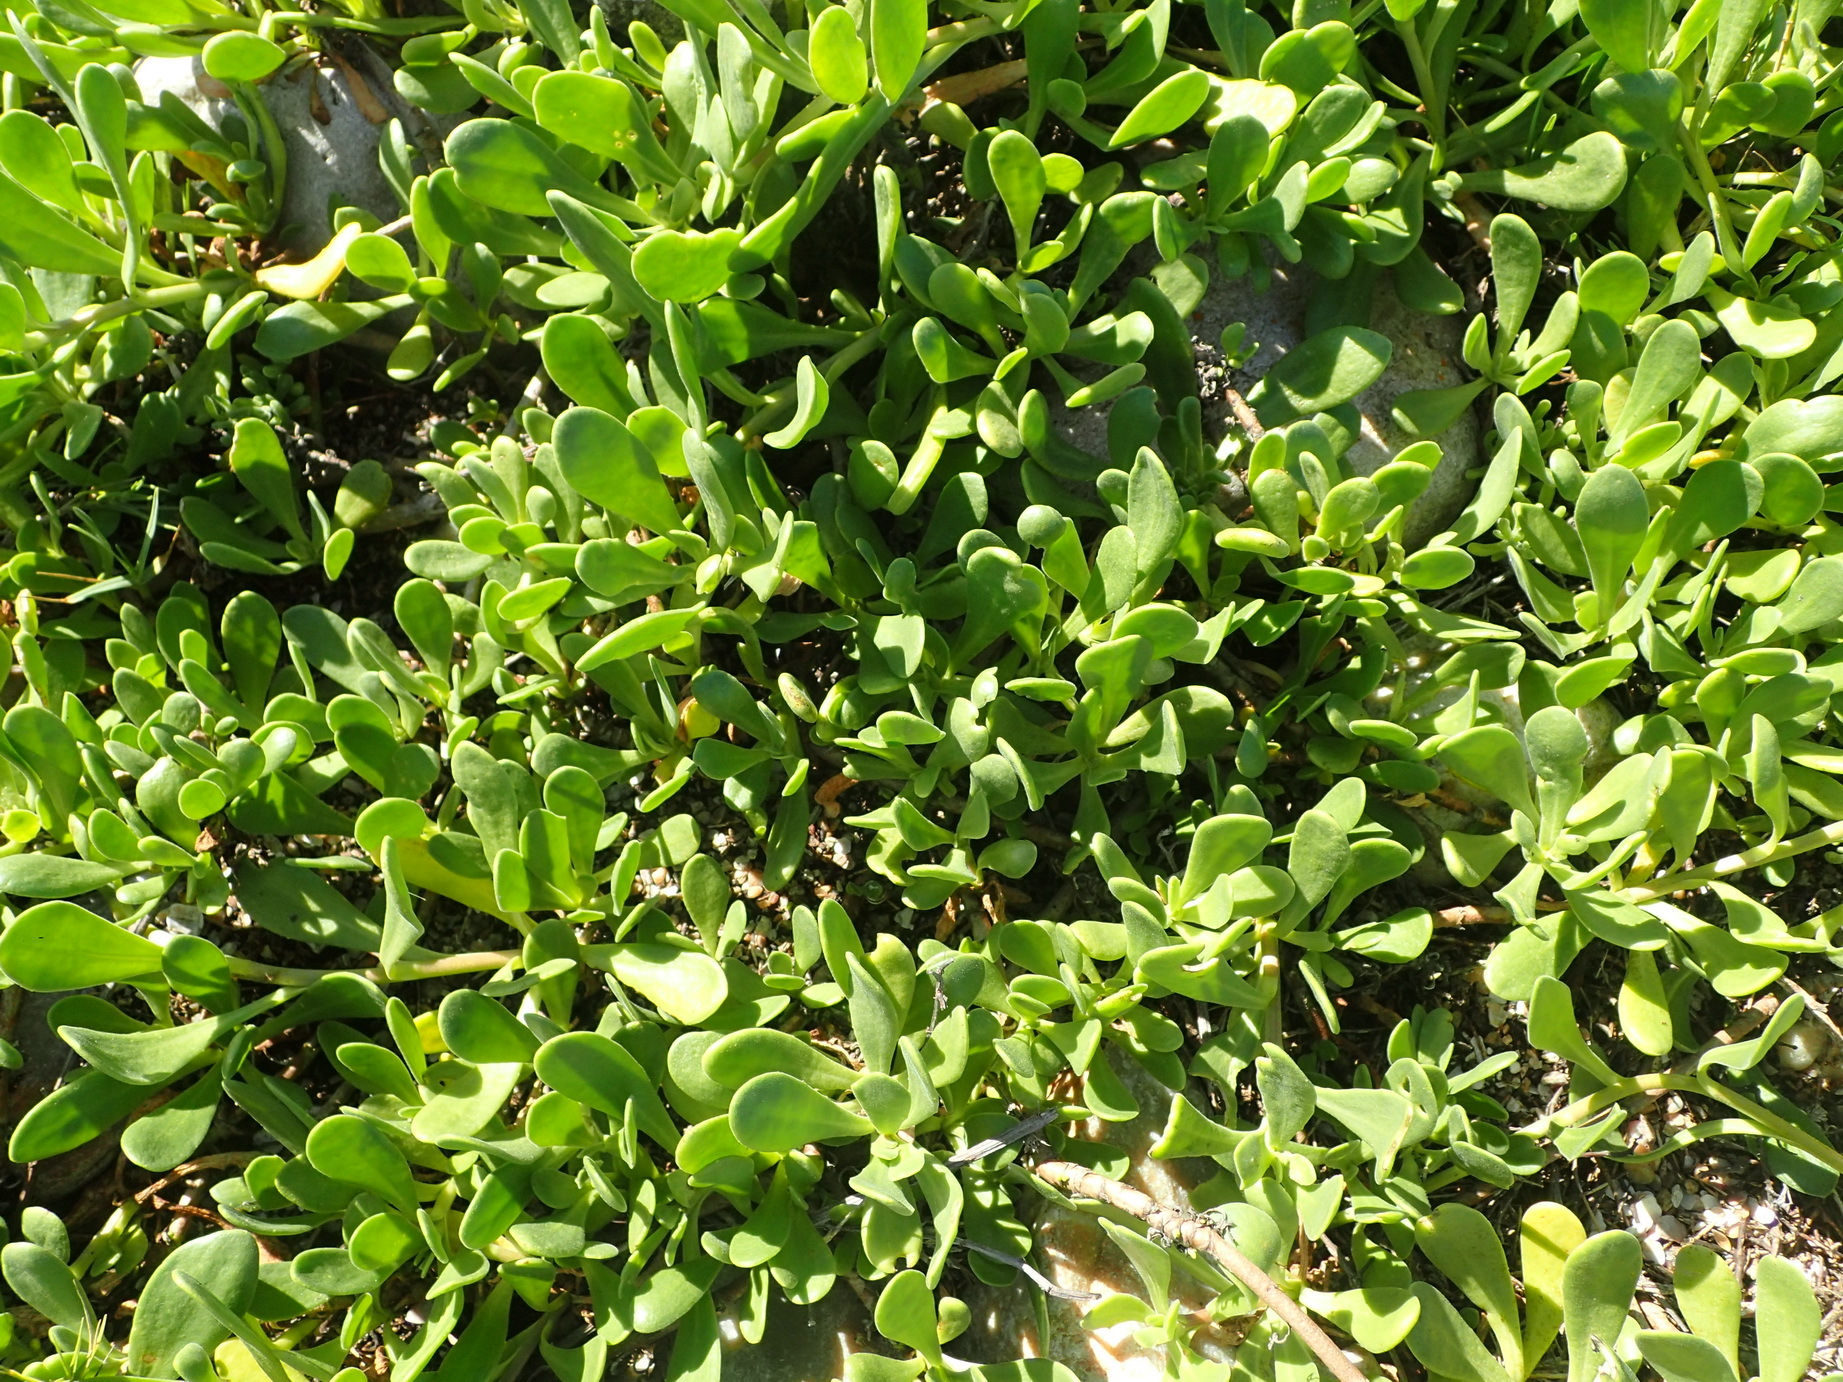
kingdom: Plantae
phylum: Tracheophyta
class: Magnoliopsida
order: Asterales
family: Asteraceae
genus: Dimorphotheca
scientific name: Dimorphotheca fruticosa
